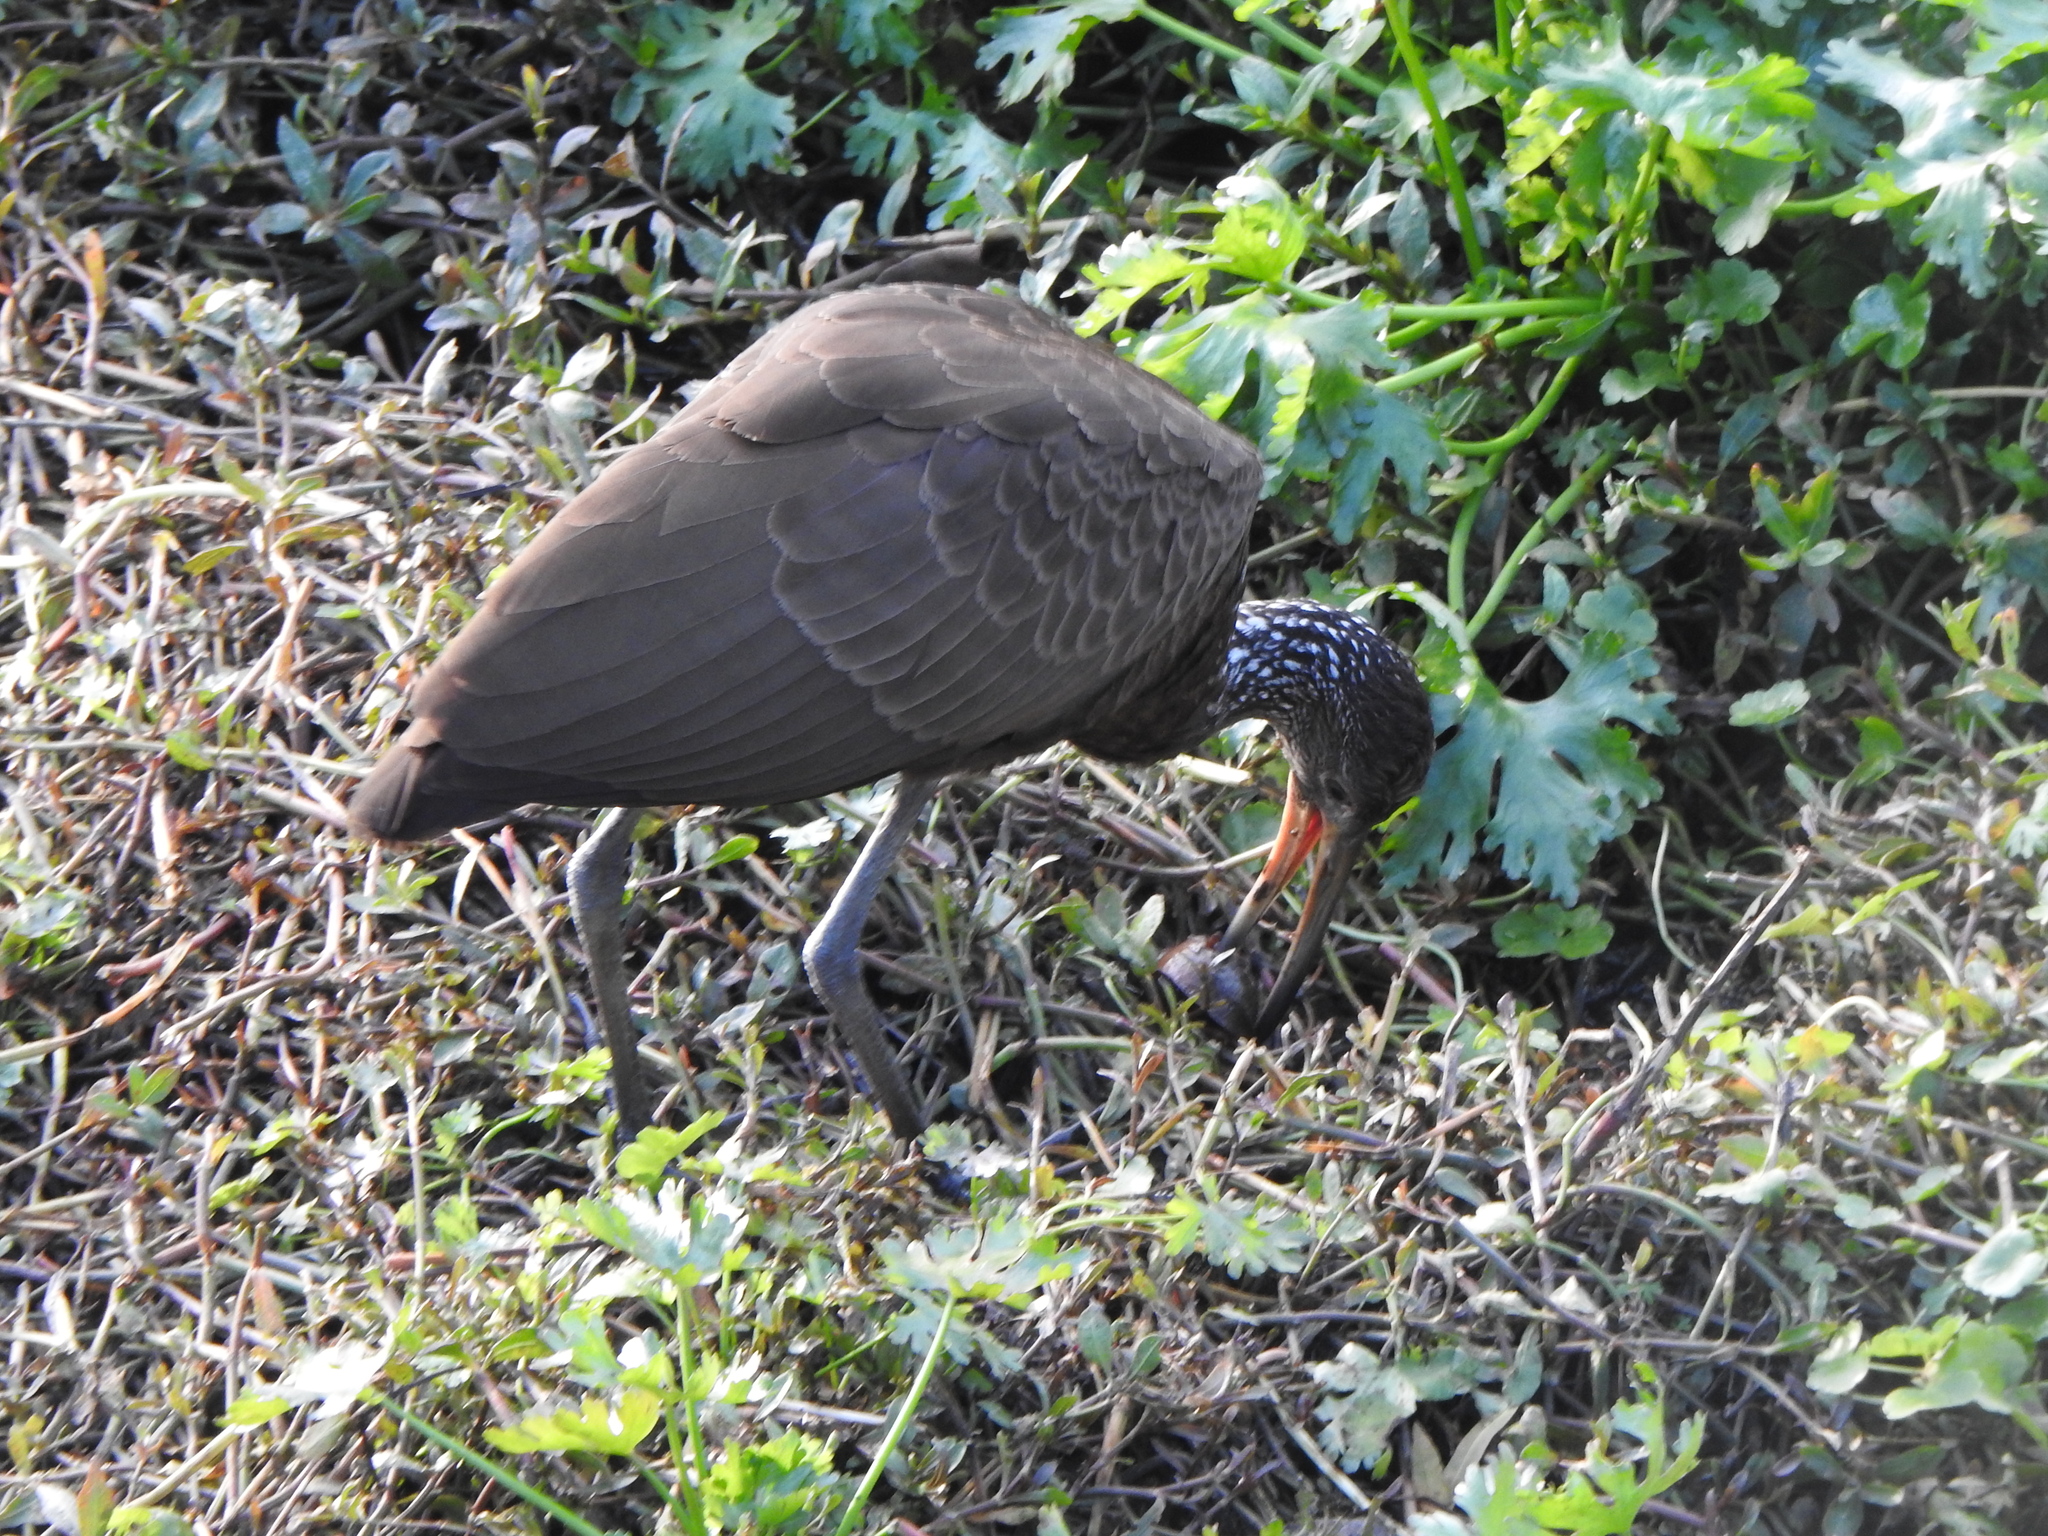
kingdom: Animalia
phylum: Chordata
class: Aves
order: Gruiformes
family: Aramidae
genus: Aramus
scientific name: Aramus guarauna
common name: Limpkin
